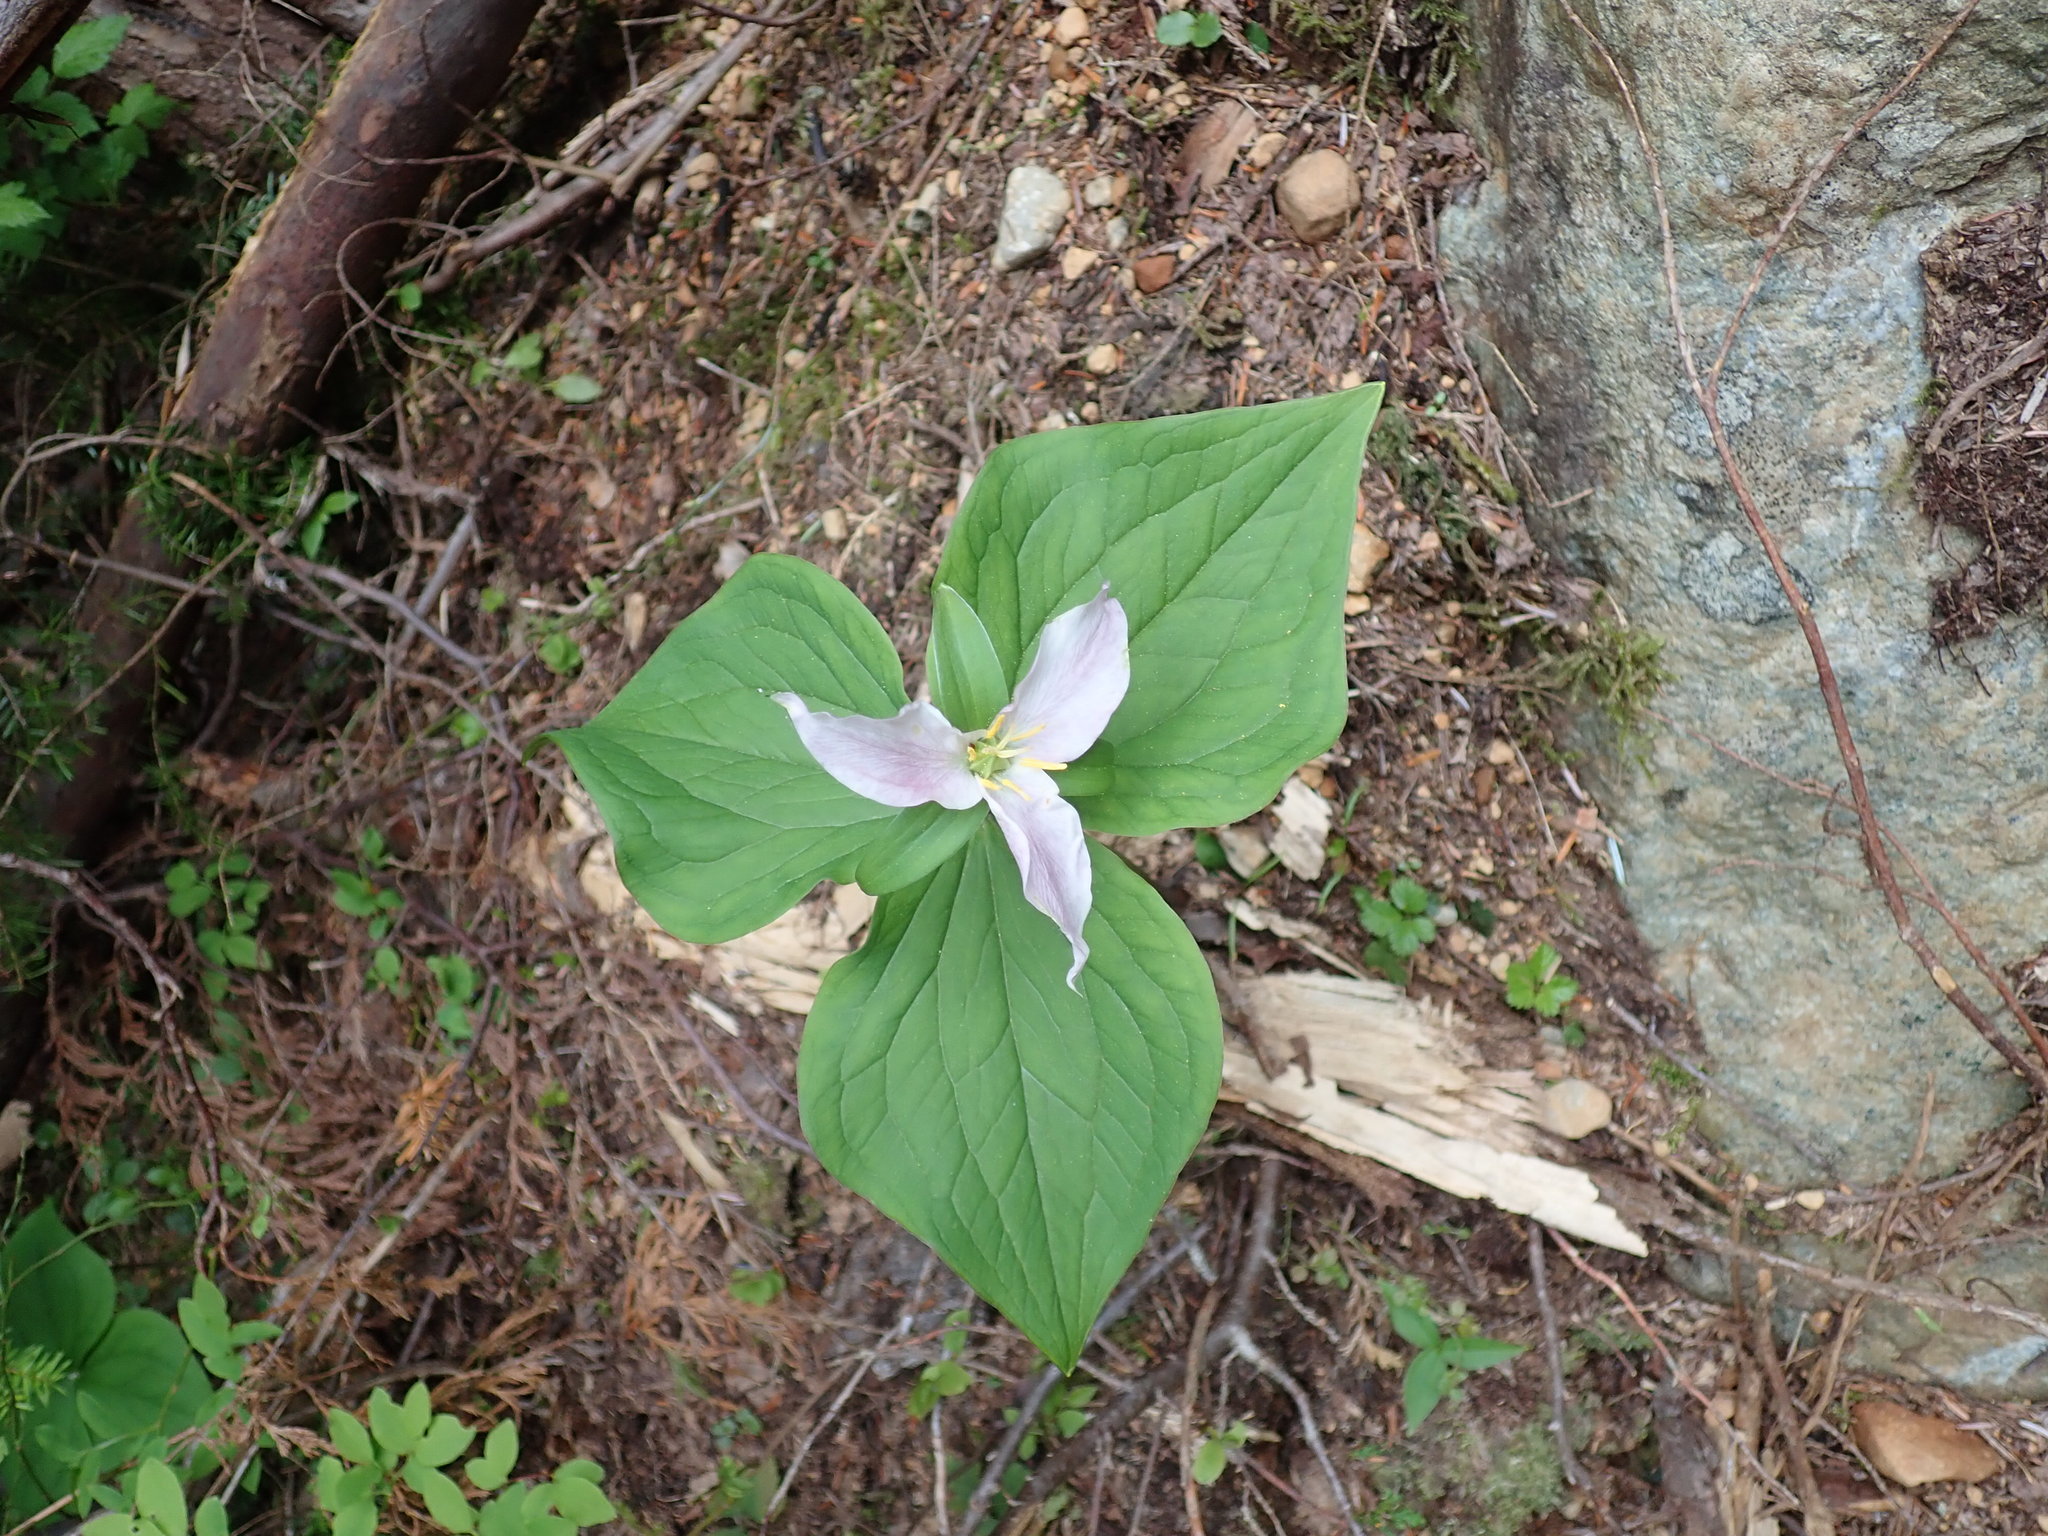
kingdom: Plantae
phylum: Tracheophyta
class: Liliopsida
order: Liliales
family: Melanthiaceae
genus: Trillium
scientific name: Trillium ovatum
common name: Pacific trillium
